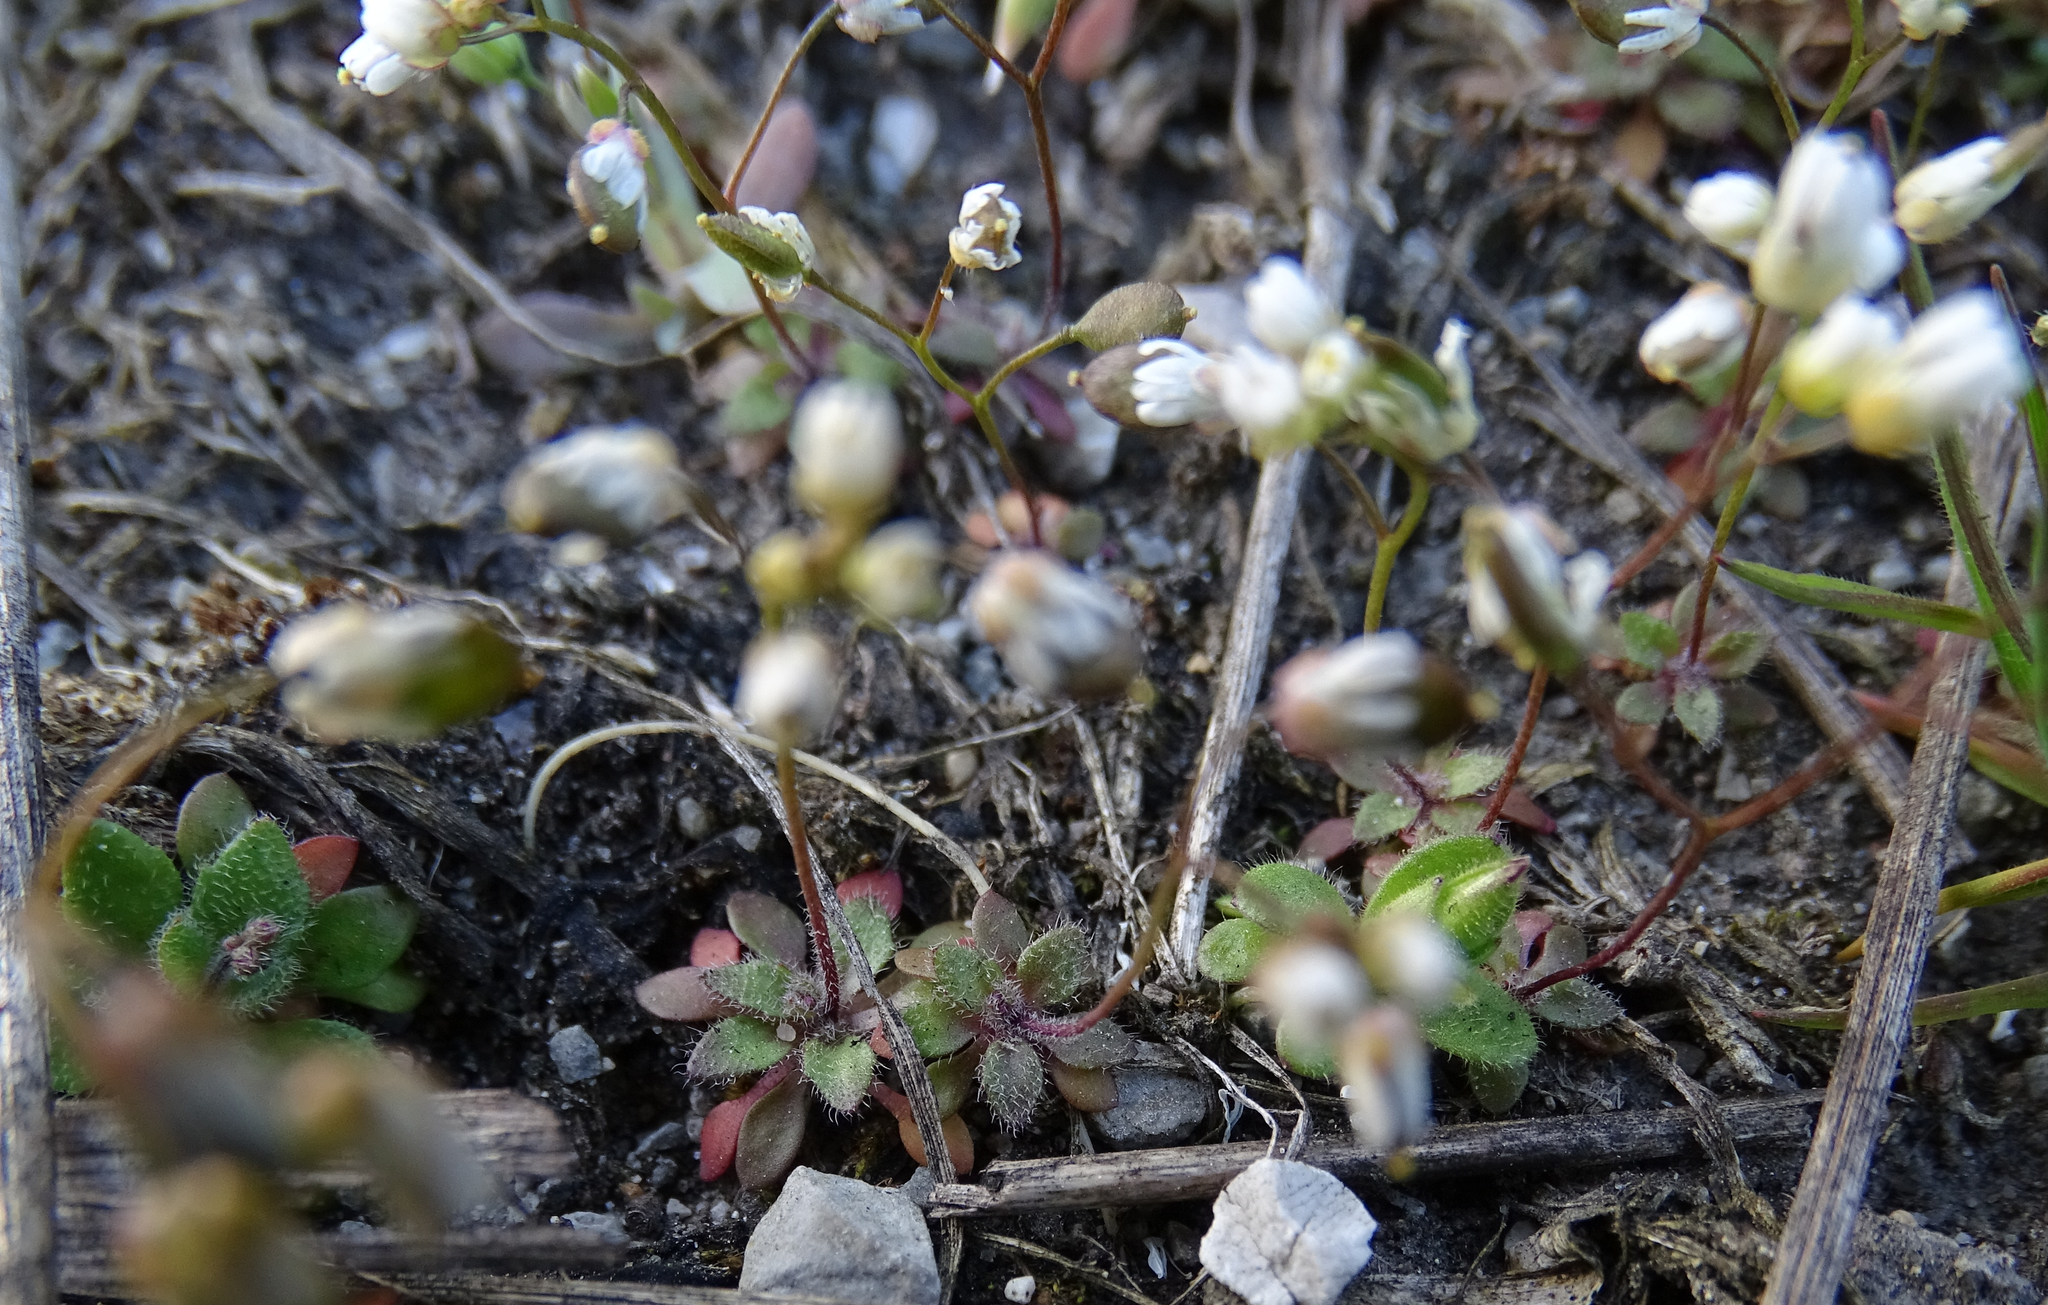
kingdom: Plantae
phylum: Tracheophyta
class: Magnoliopsida
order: Brassicales
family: Brassicaceae
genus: Draba
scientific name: Draba verna
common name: Spring draba
